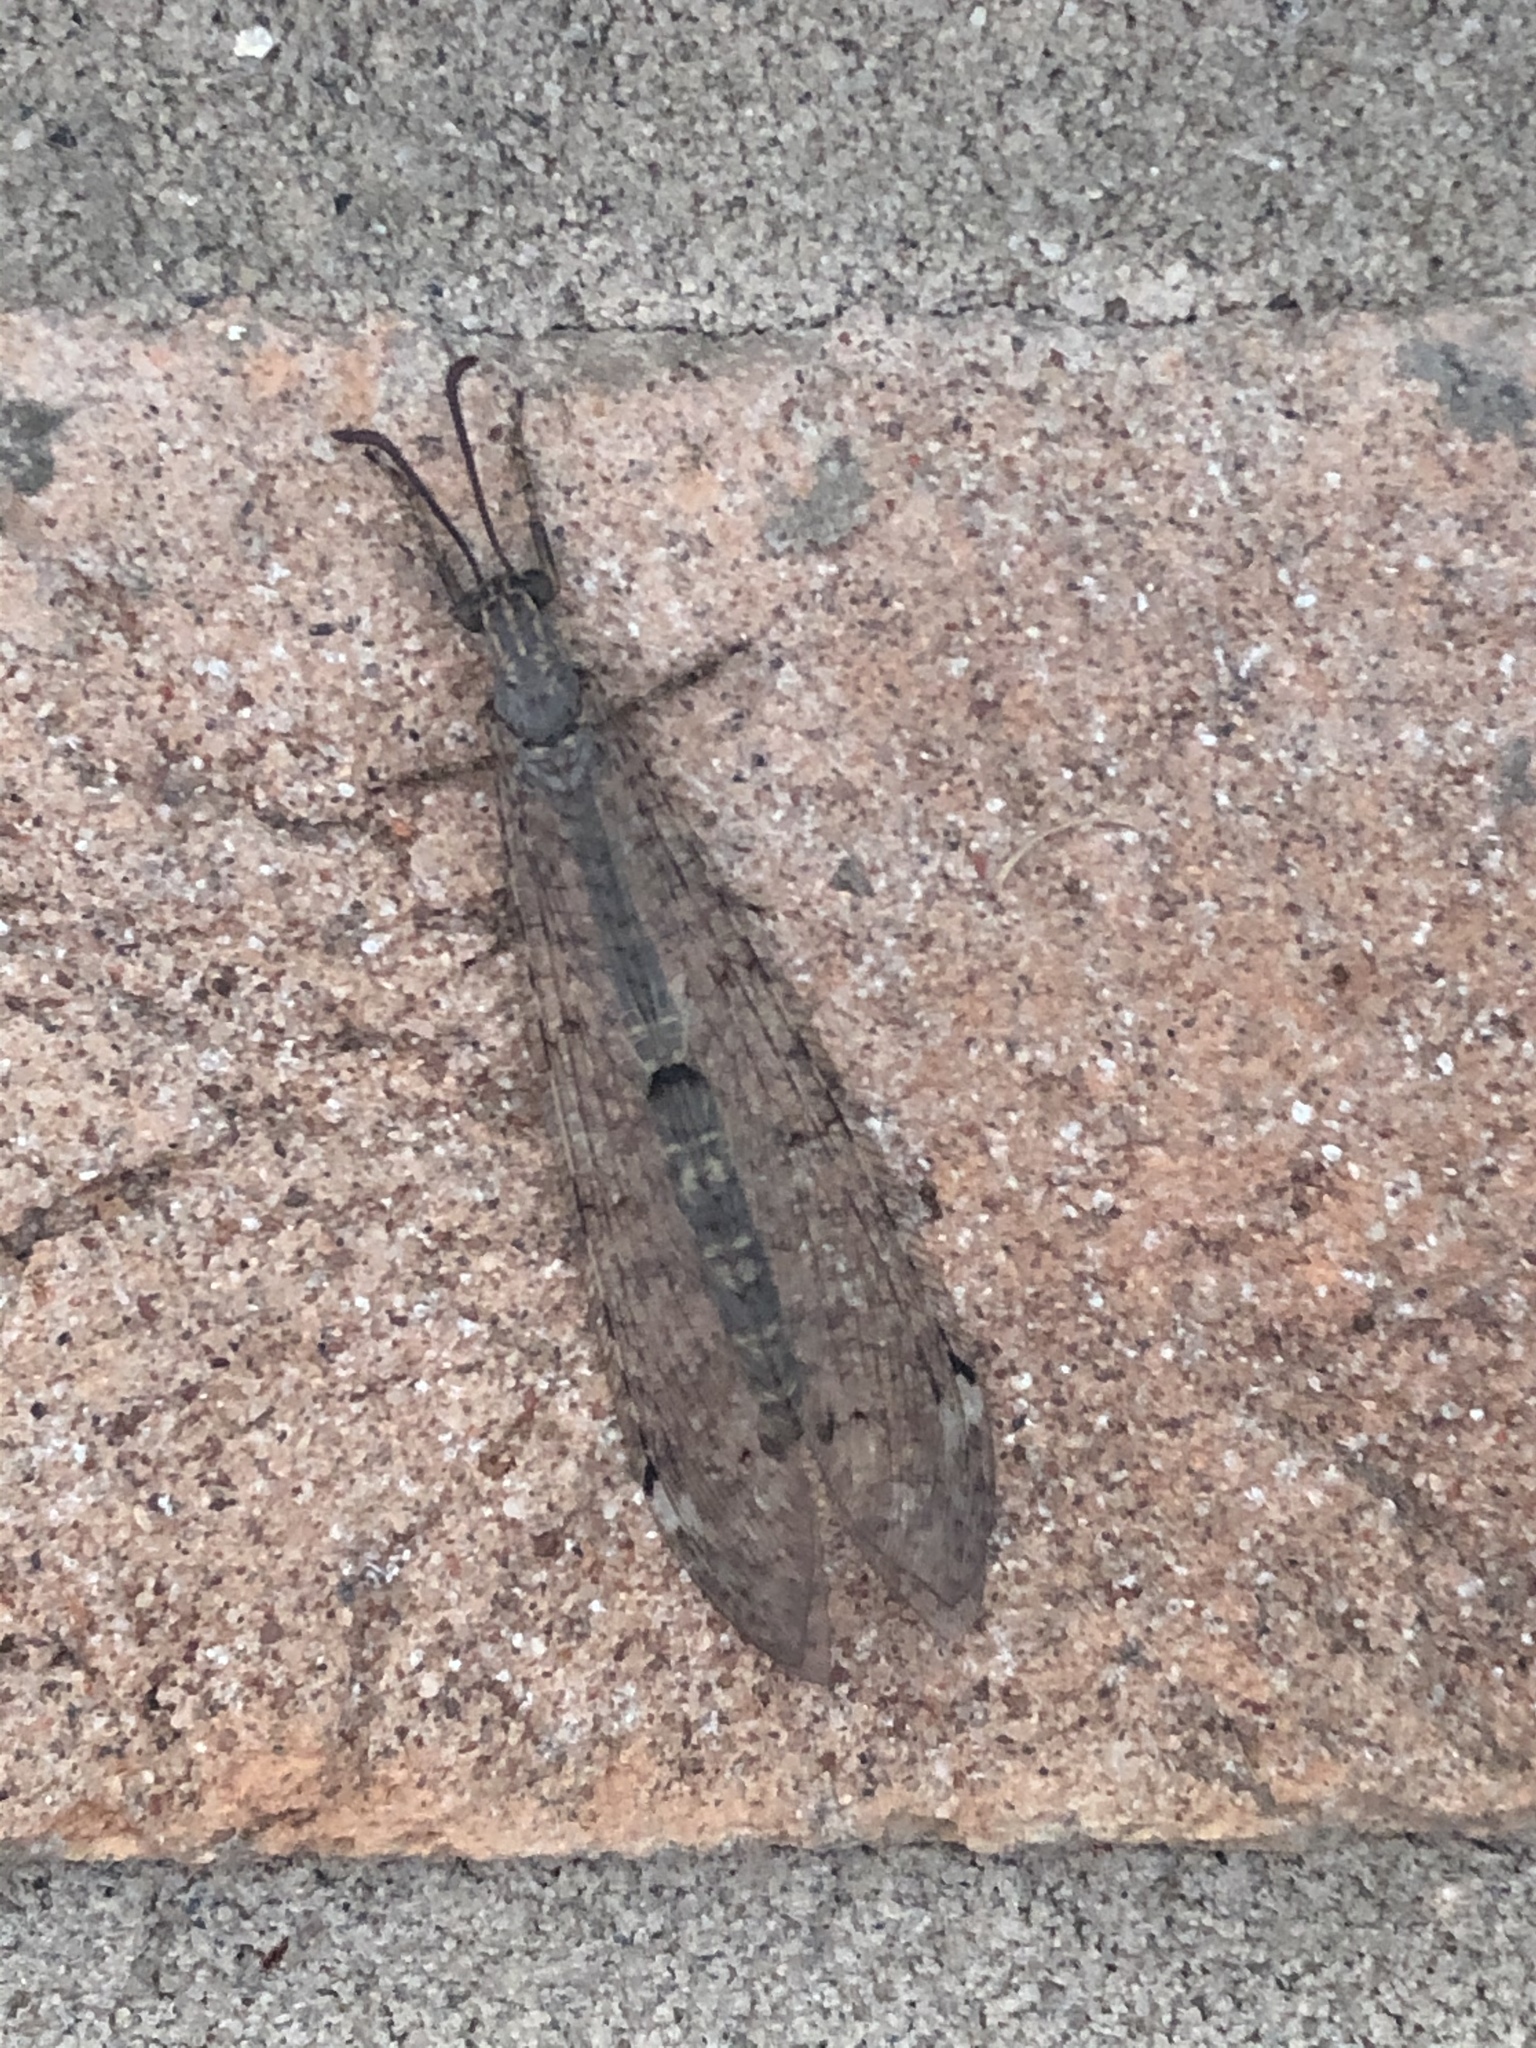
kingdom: Animalia
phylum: Arthropoda
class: Insecta
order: Neuroptera
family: Myrmeleontidae
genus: Distoleon
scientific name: Distoleon tetragrammicus
